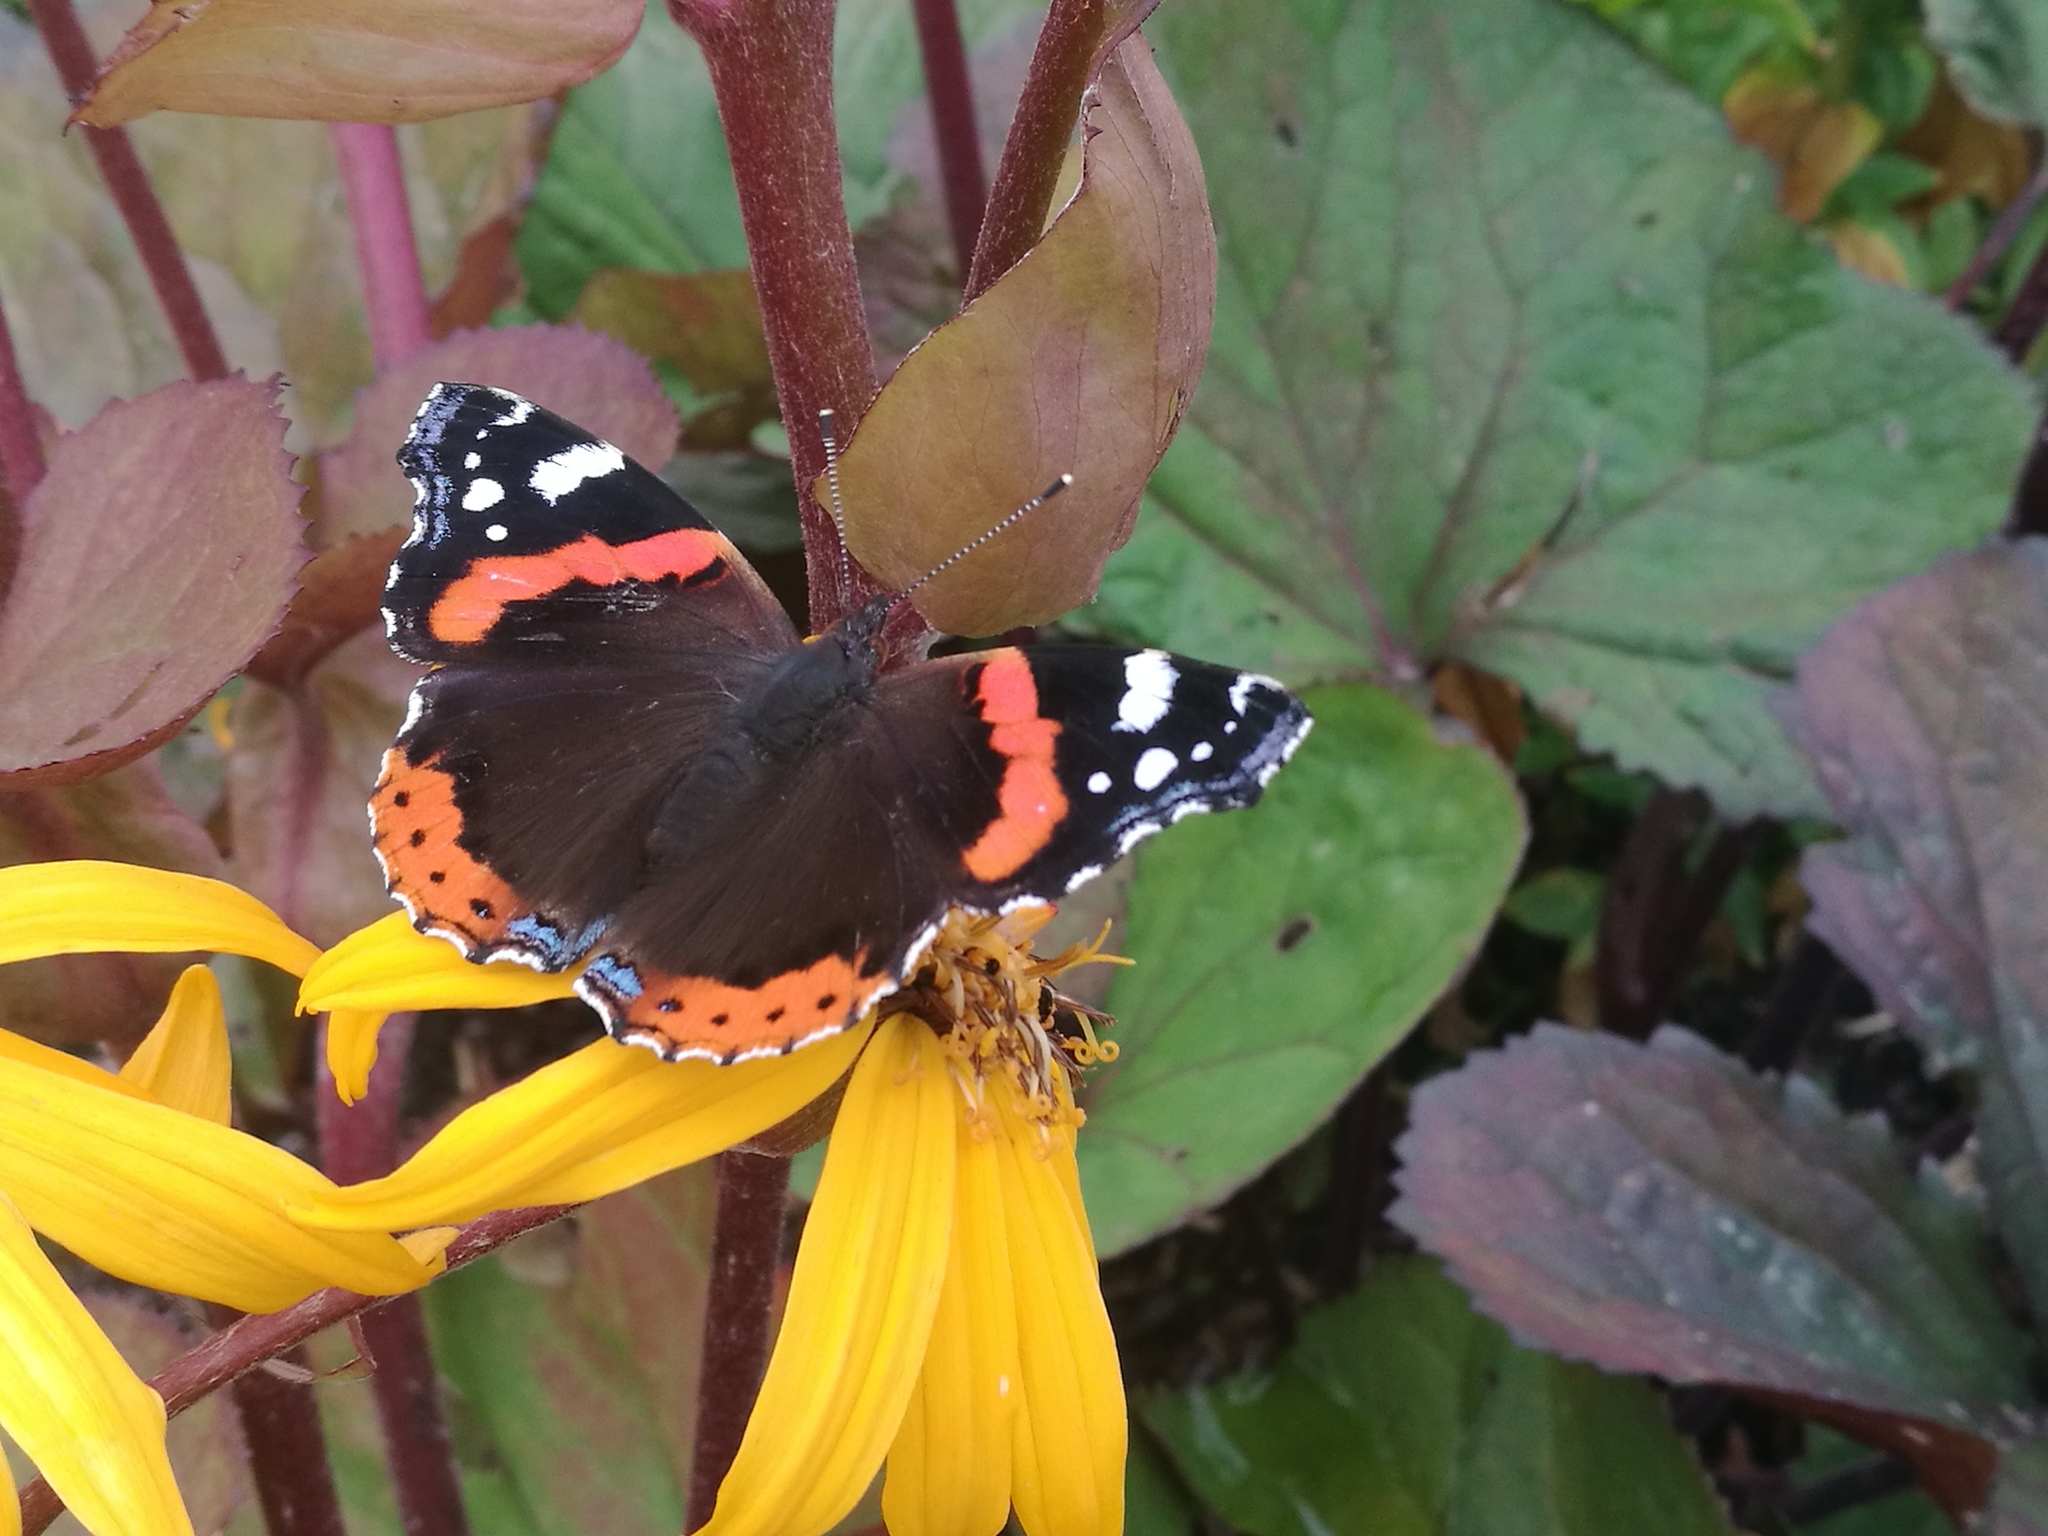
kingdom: Animalia
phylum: Arthropoda
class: Insecta
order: Lepidoptera
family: Nymphalidae
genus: Vanessa
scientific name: Vanessa atalanta
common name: Red admiral
